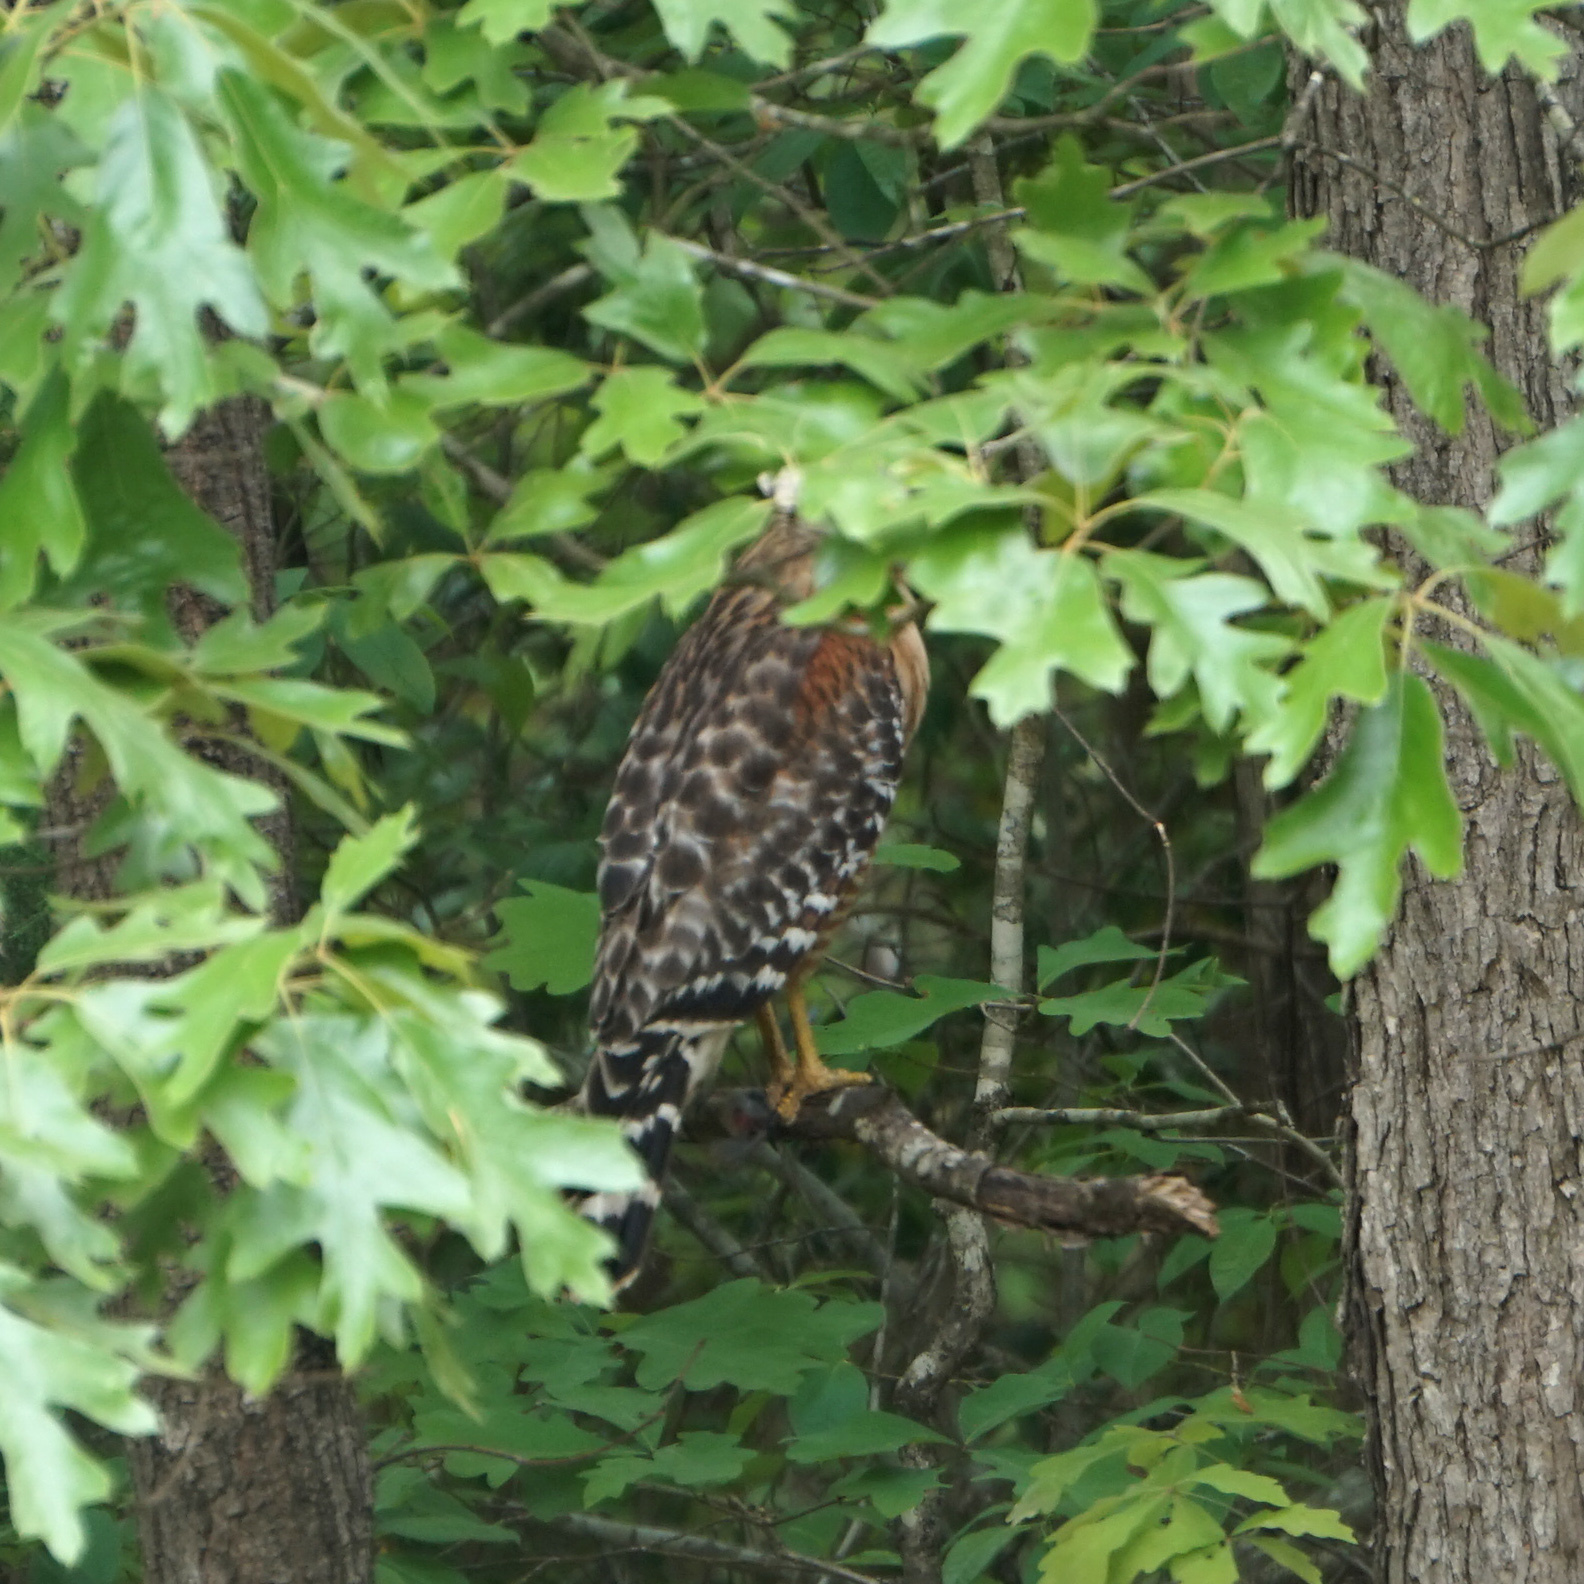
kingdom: Animalia
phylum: Chordata
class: Aves
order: Accipitriformes
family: Accipitridae
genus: Buteo
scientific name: Buteo lineatus
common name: Red-shouldered hawk
